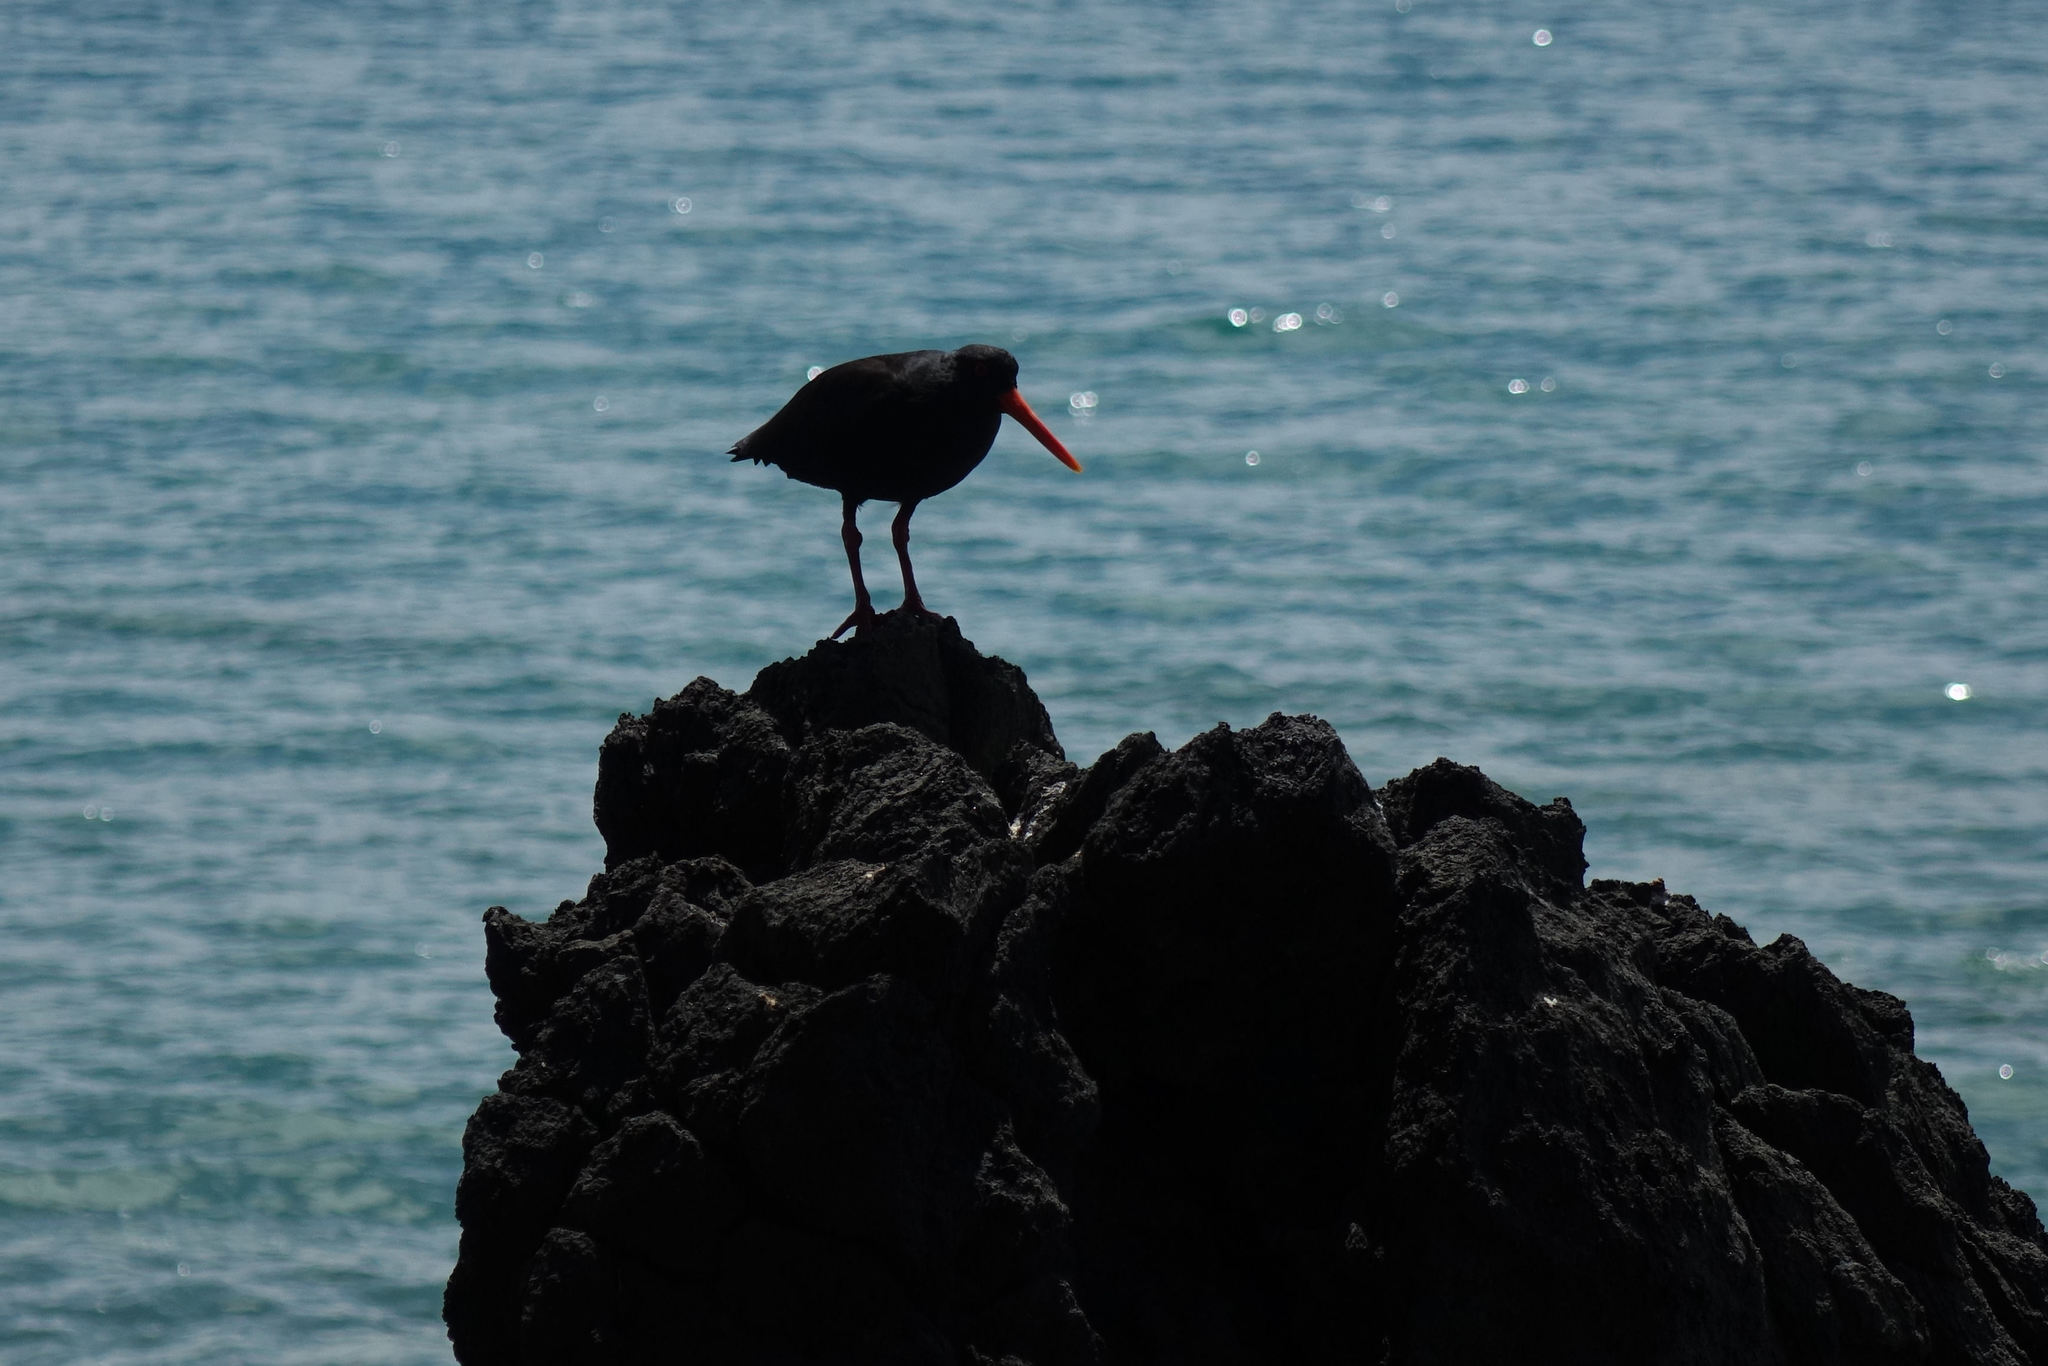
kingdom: Animalia
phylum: Chordata
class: Aves
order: Charadriiformes
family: Haematopodidae
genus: Haematopus
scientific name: Haematopus unicolor
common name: Variable oystercatcher
